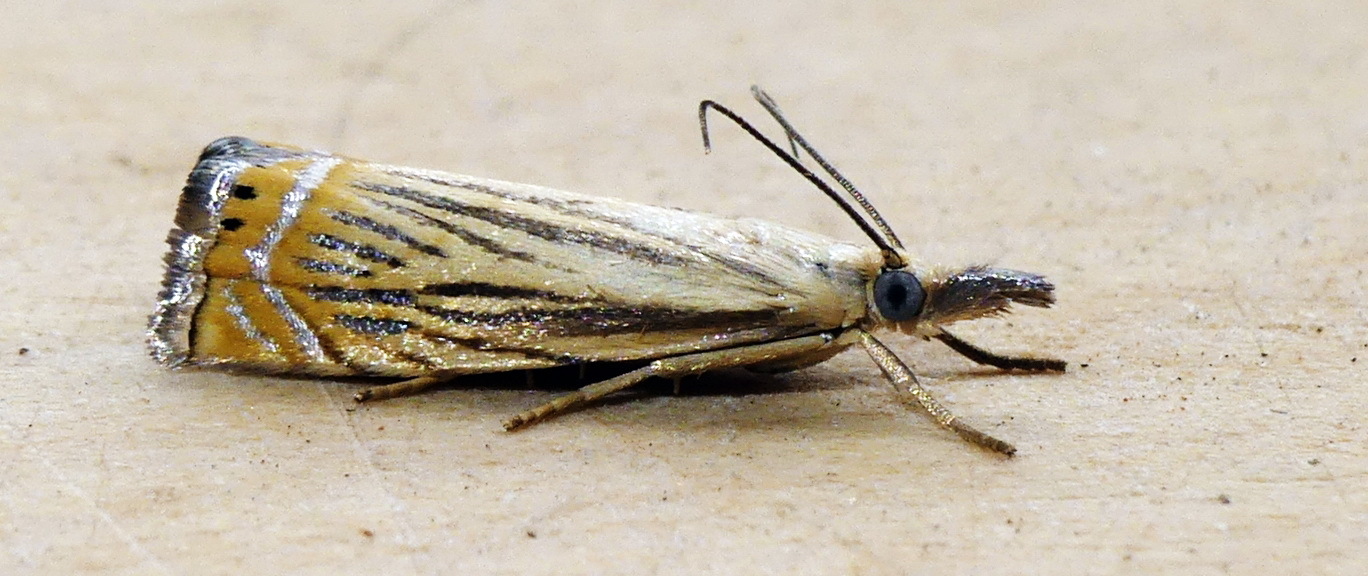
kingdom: Animalia
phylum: Arthropoda
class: Insecta
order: Lepidoptera
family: Crambidae
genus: Chrysoteuchia
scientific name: Chrysoteuchia topiarius
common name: Topiary grass-veneer
